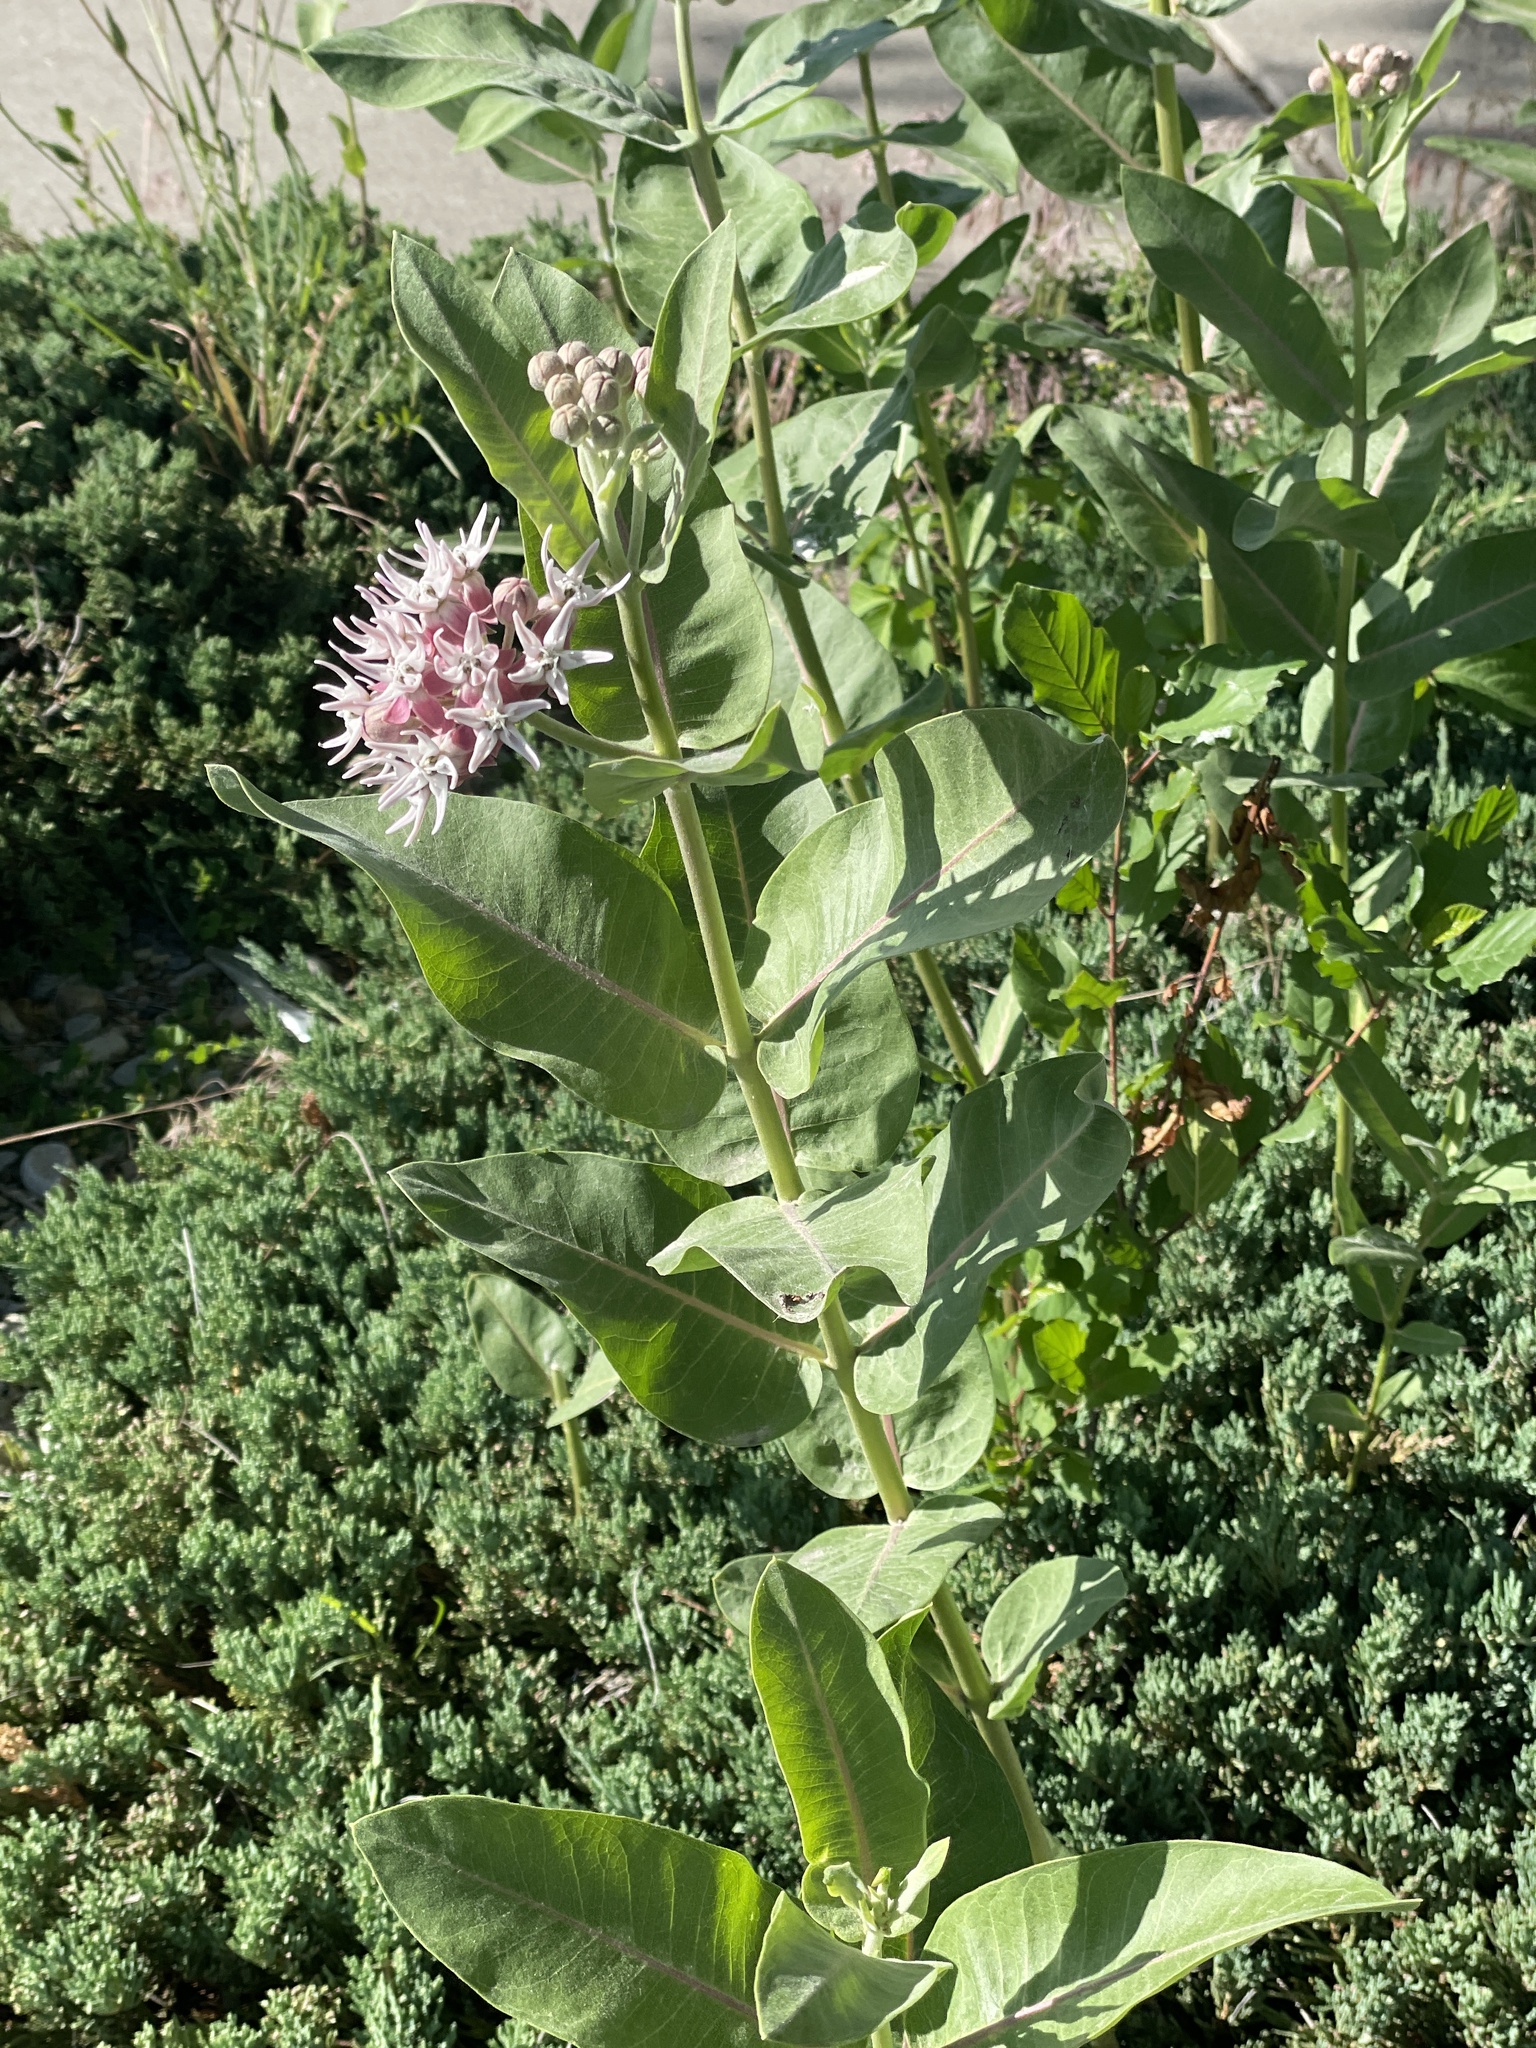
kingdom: Plantae
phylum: Tracheophyta
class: Magnoliopsida
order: Gentianales
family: Apocynaceae
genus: Asclepias
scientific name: Asclepias speciosa
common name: Showy milkweed
